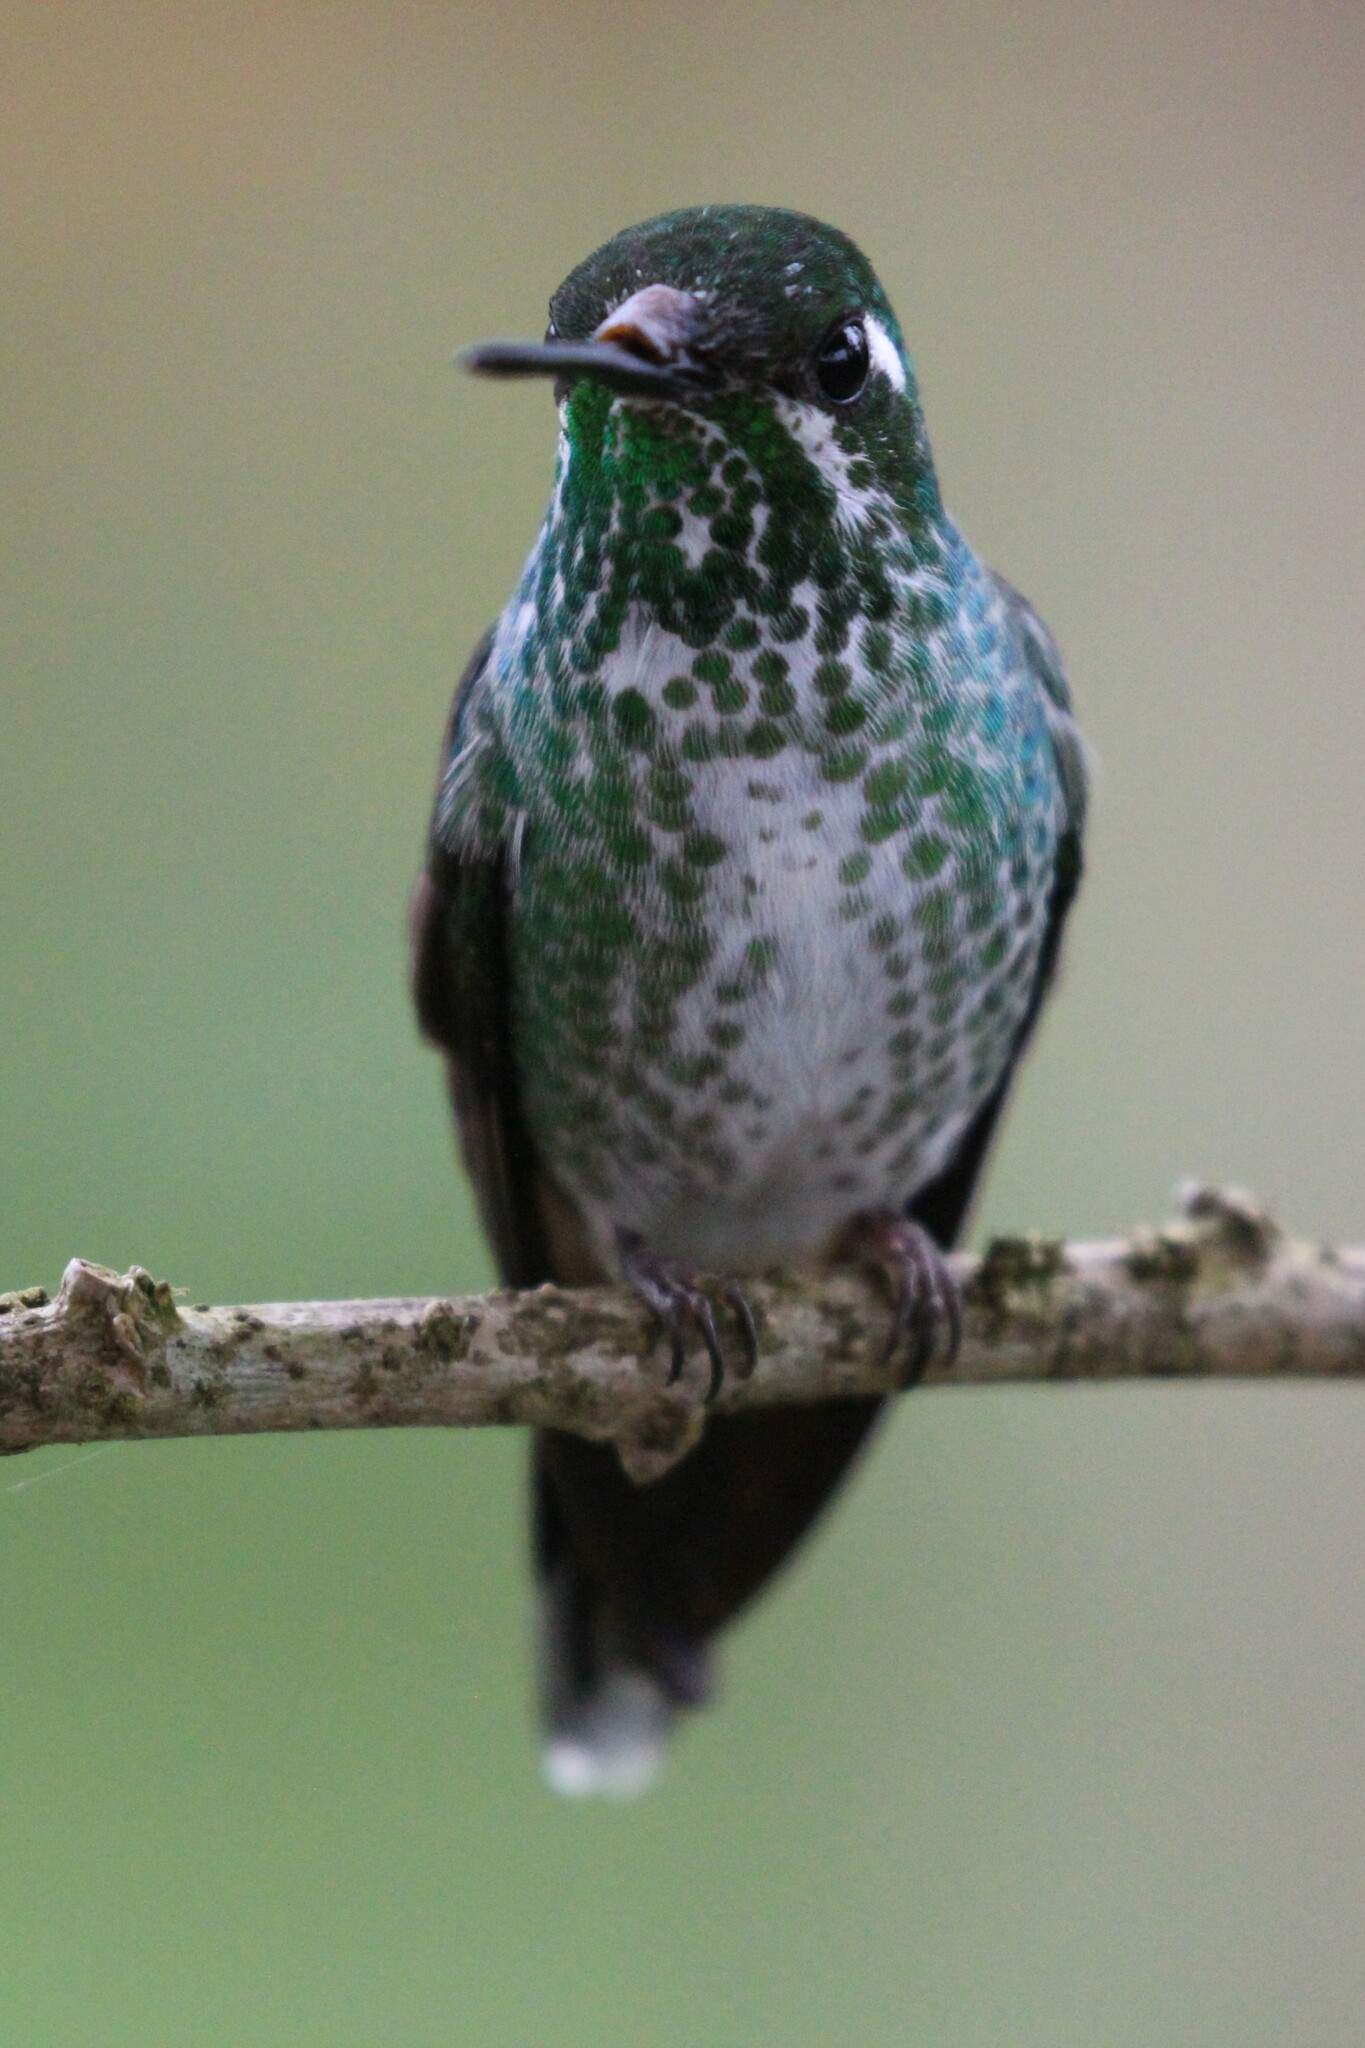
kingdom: Animalia
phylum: Chordata
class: Aves
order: Apodiformes
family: Trochilidae
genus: Urosticte
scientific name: Urosticte benjamini
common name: Purple-bibbed whitetip
